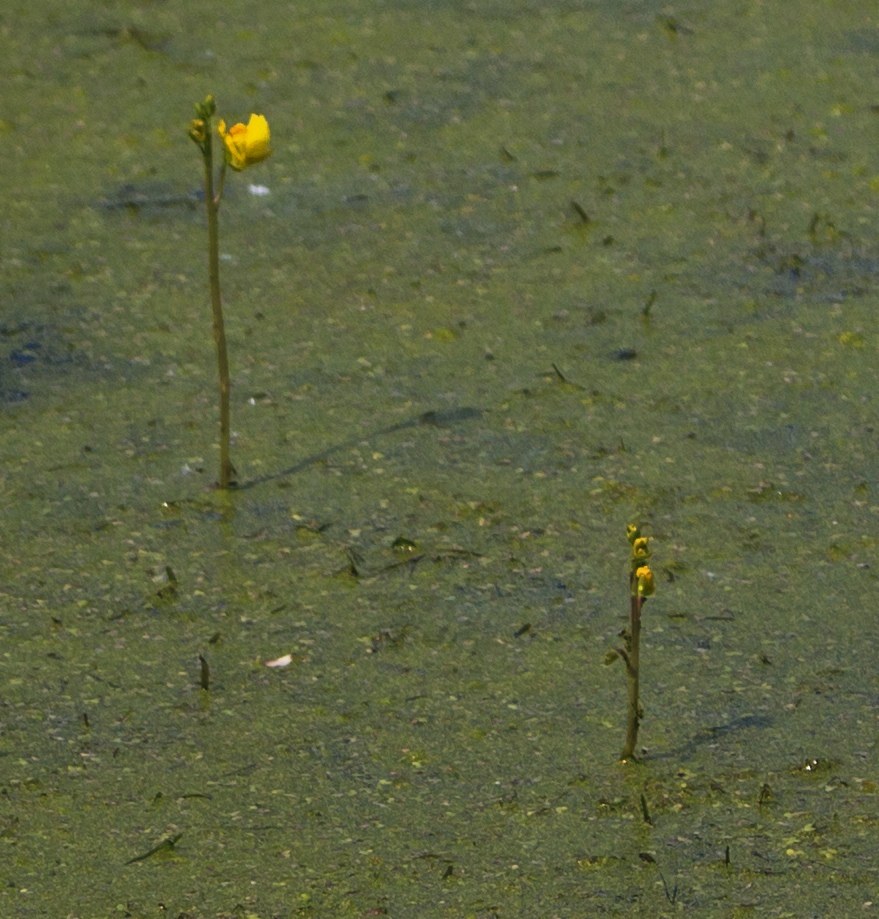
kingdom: Plantae
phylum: Tracheophyta
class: Magnoliopsida
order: Lamiales
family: Lentibulariaceae
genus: Utricularia
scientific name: Utricularia macrorhiza
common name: Common bladderwort
